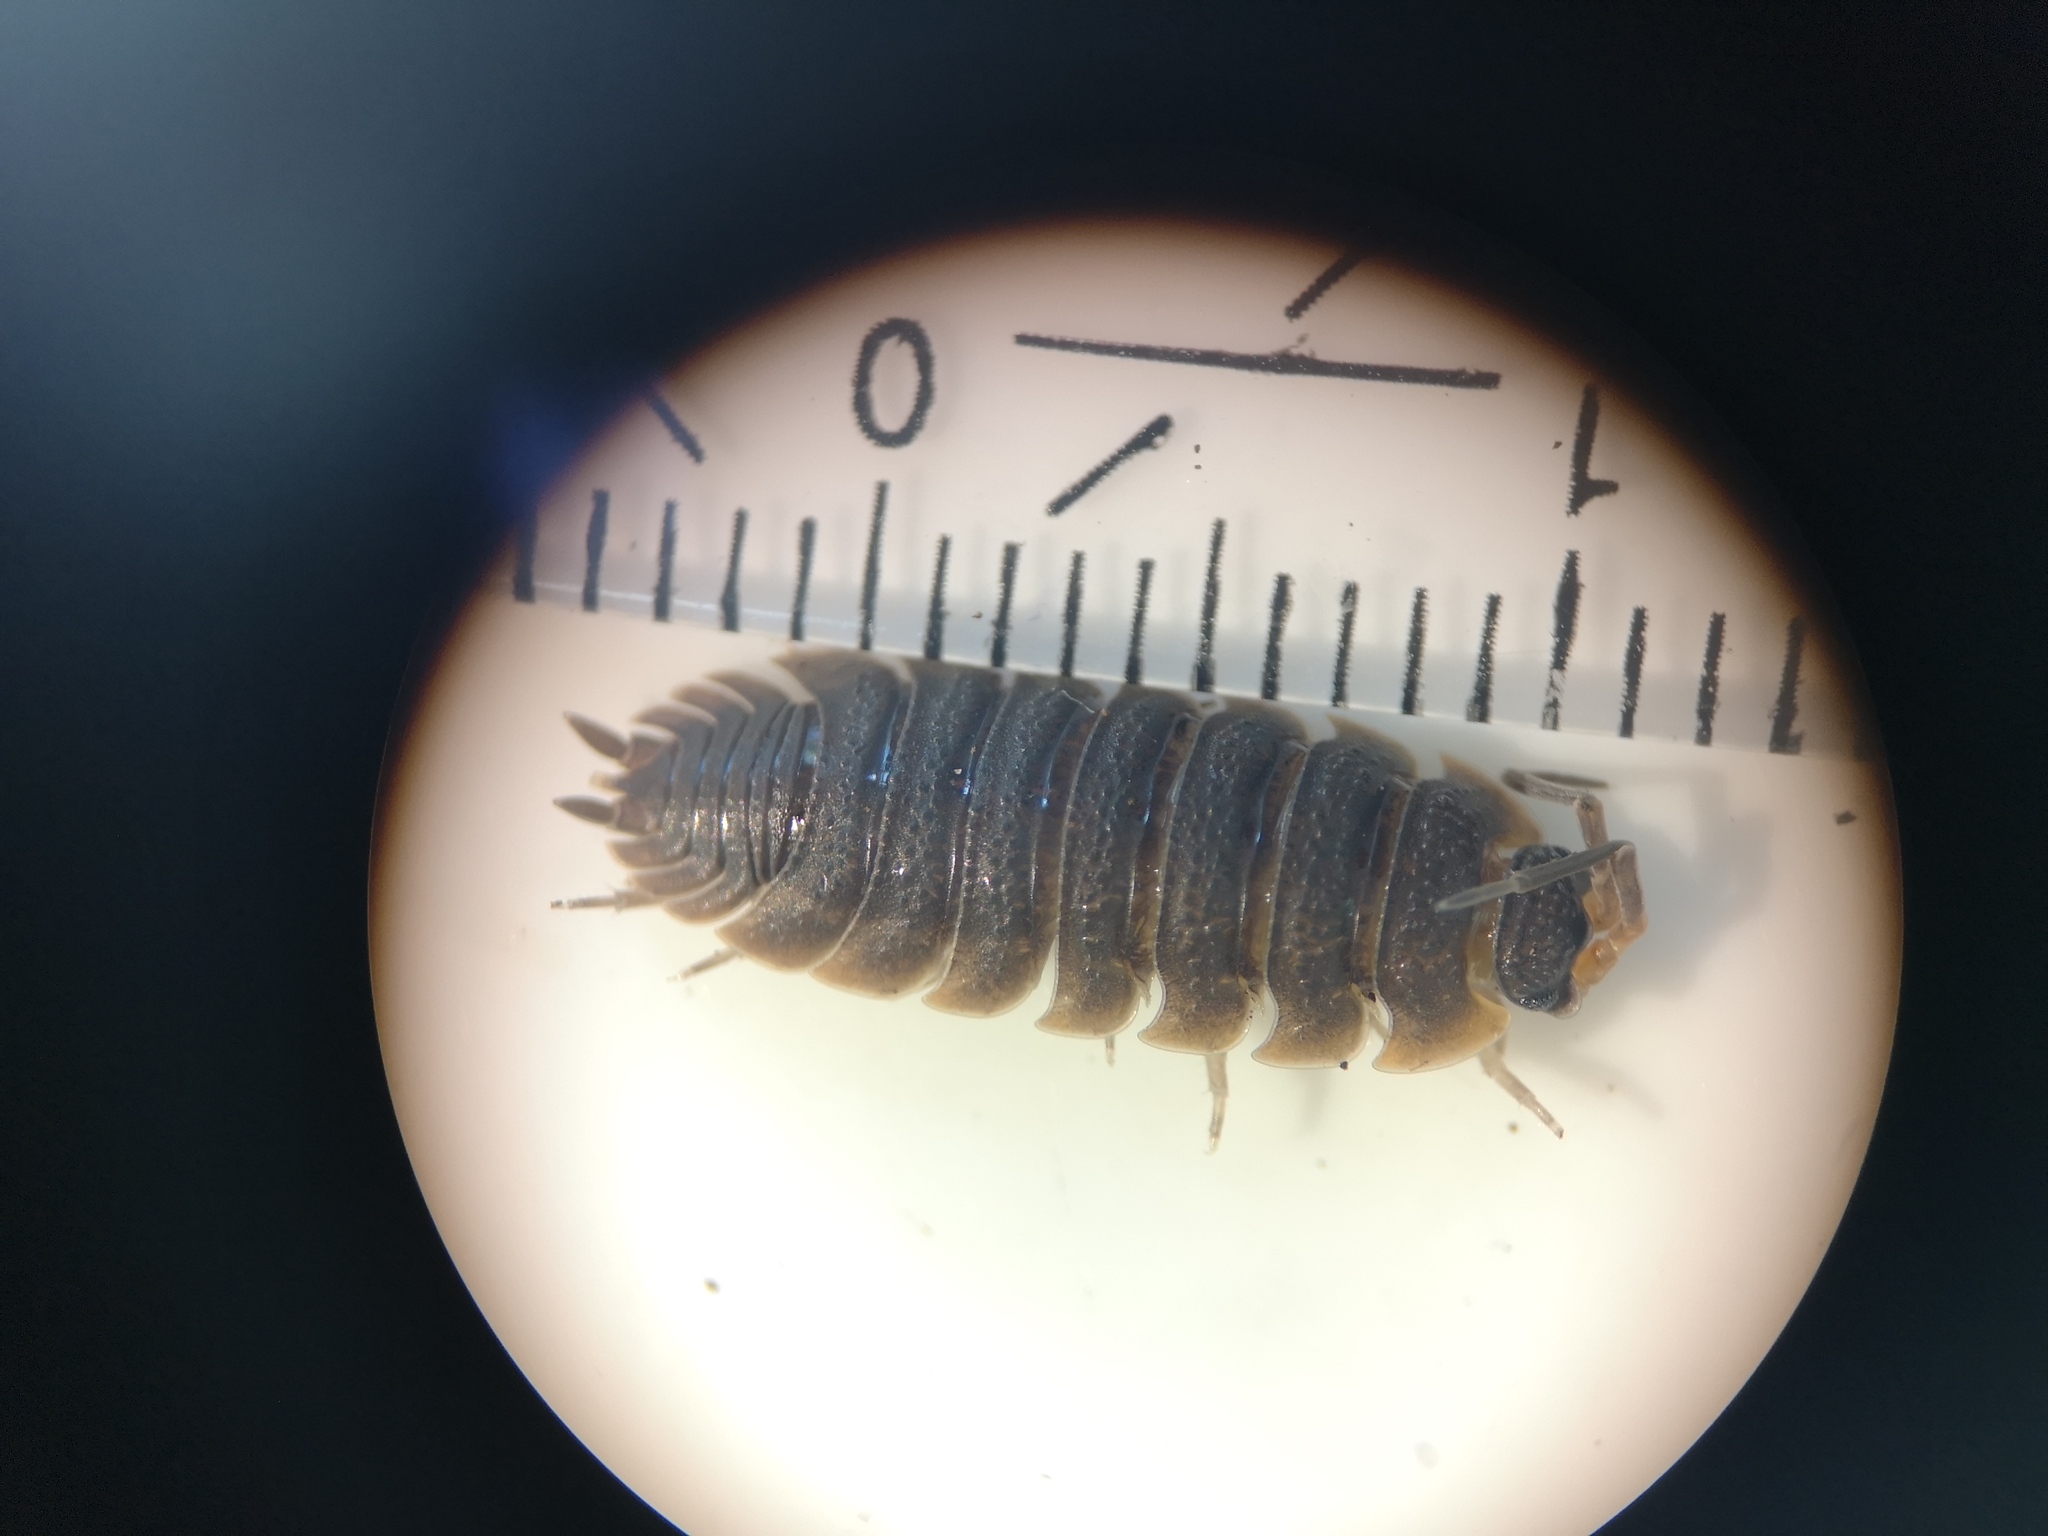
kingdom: Animalia
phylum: Arthropoda
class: Malacostraca
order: Isopoda
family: Porcellionidae
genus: Porcellio
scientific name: Porcellio scaber
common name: Common rough woodlouse
